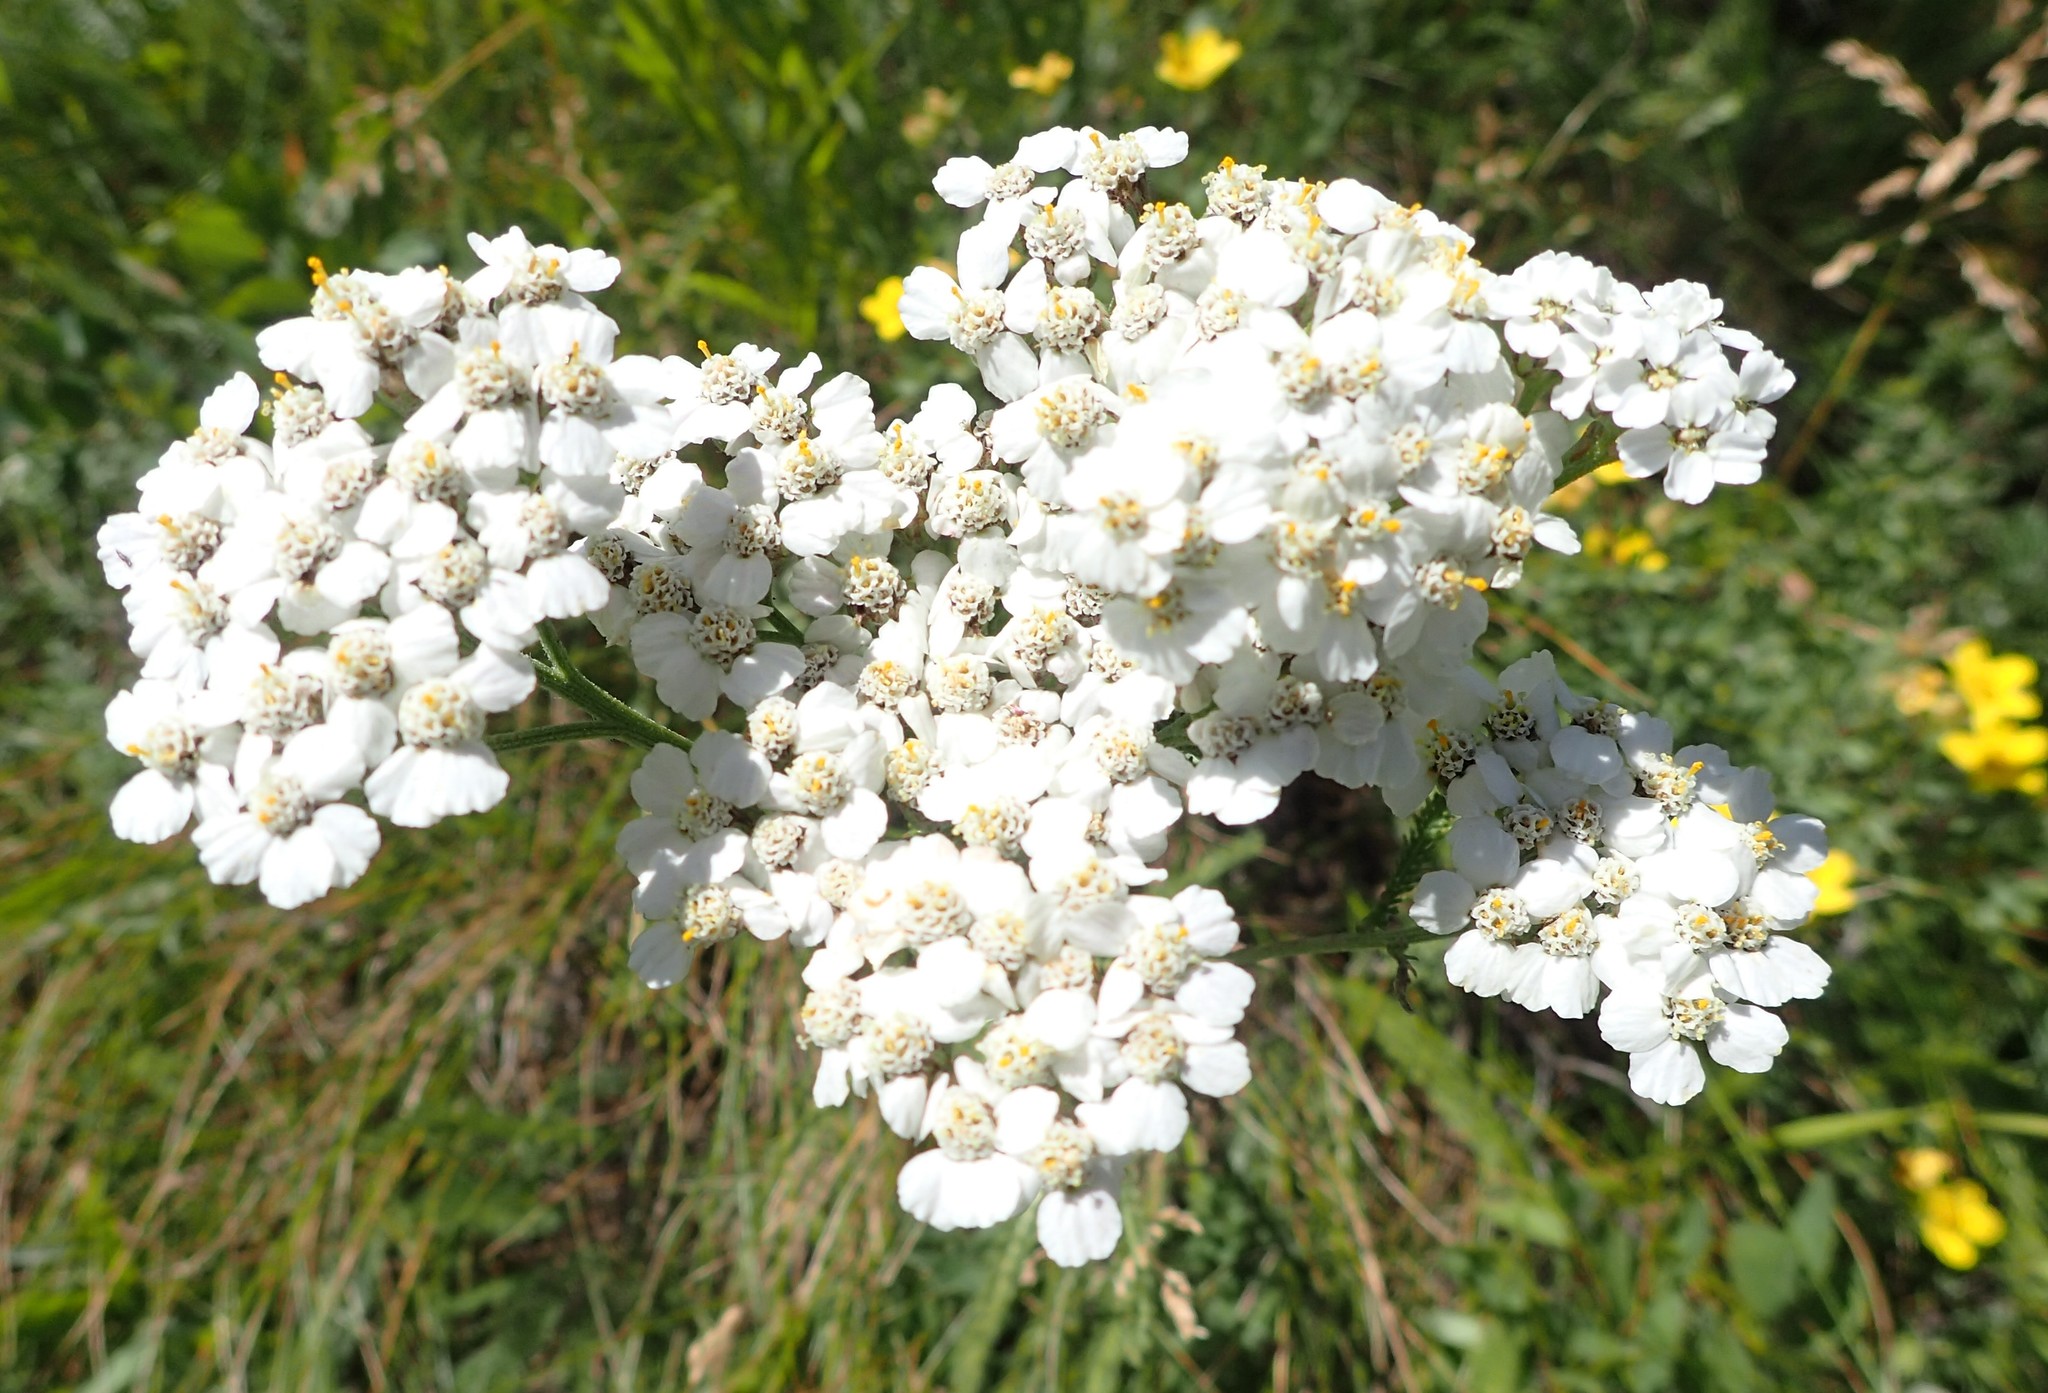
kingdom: Plantae
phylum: Tracheophyta
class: Magnoliopsida
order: Asterales
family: Asteraceae
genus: Achillea
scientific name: Achillea millefolium
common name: Yarrow
